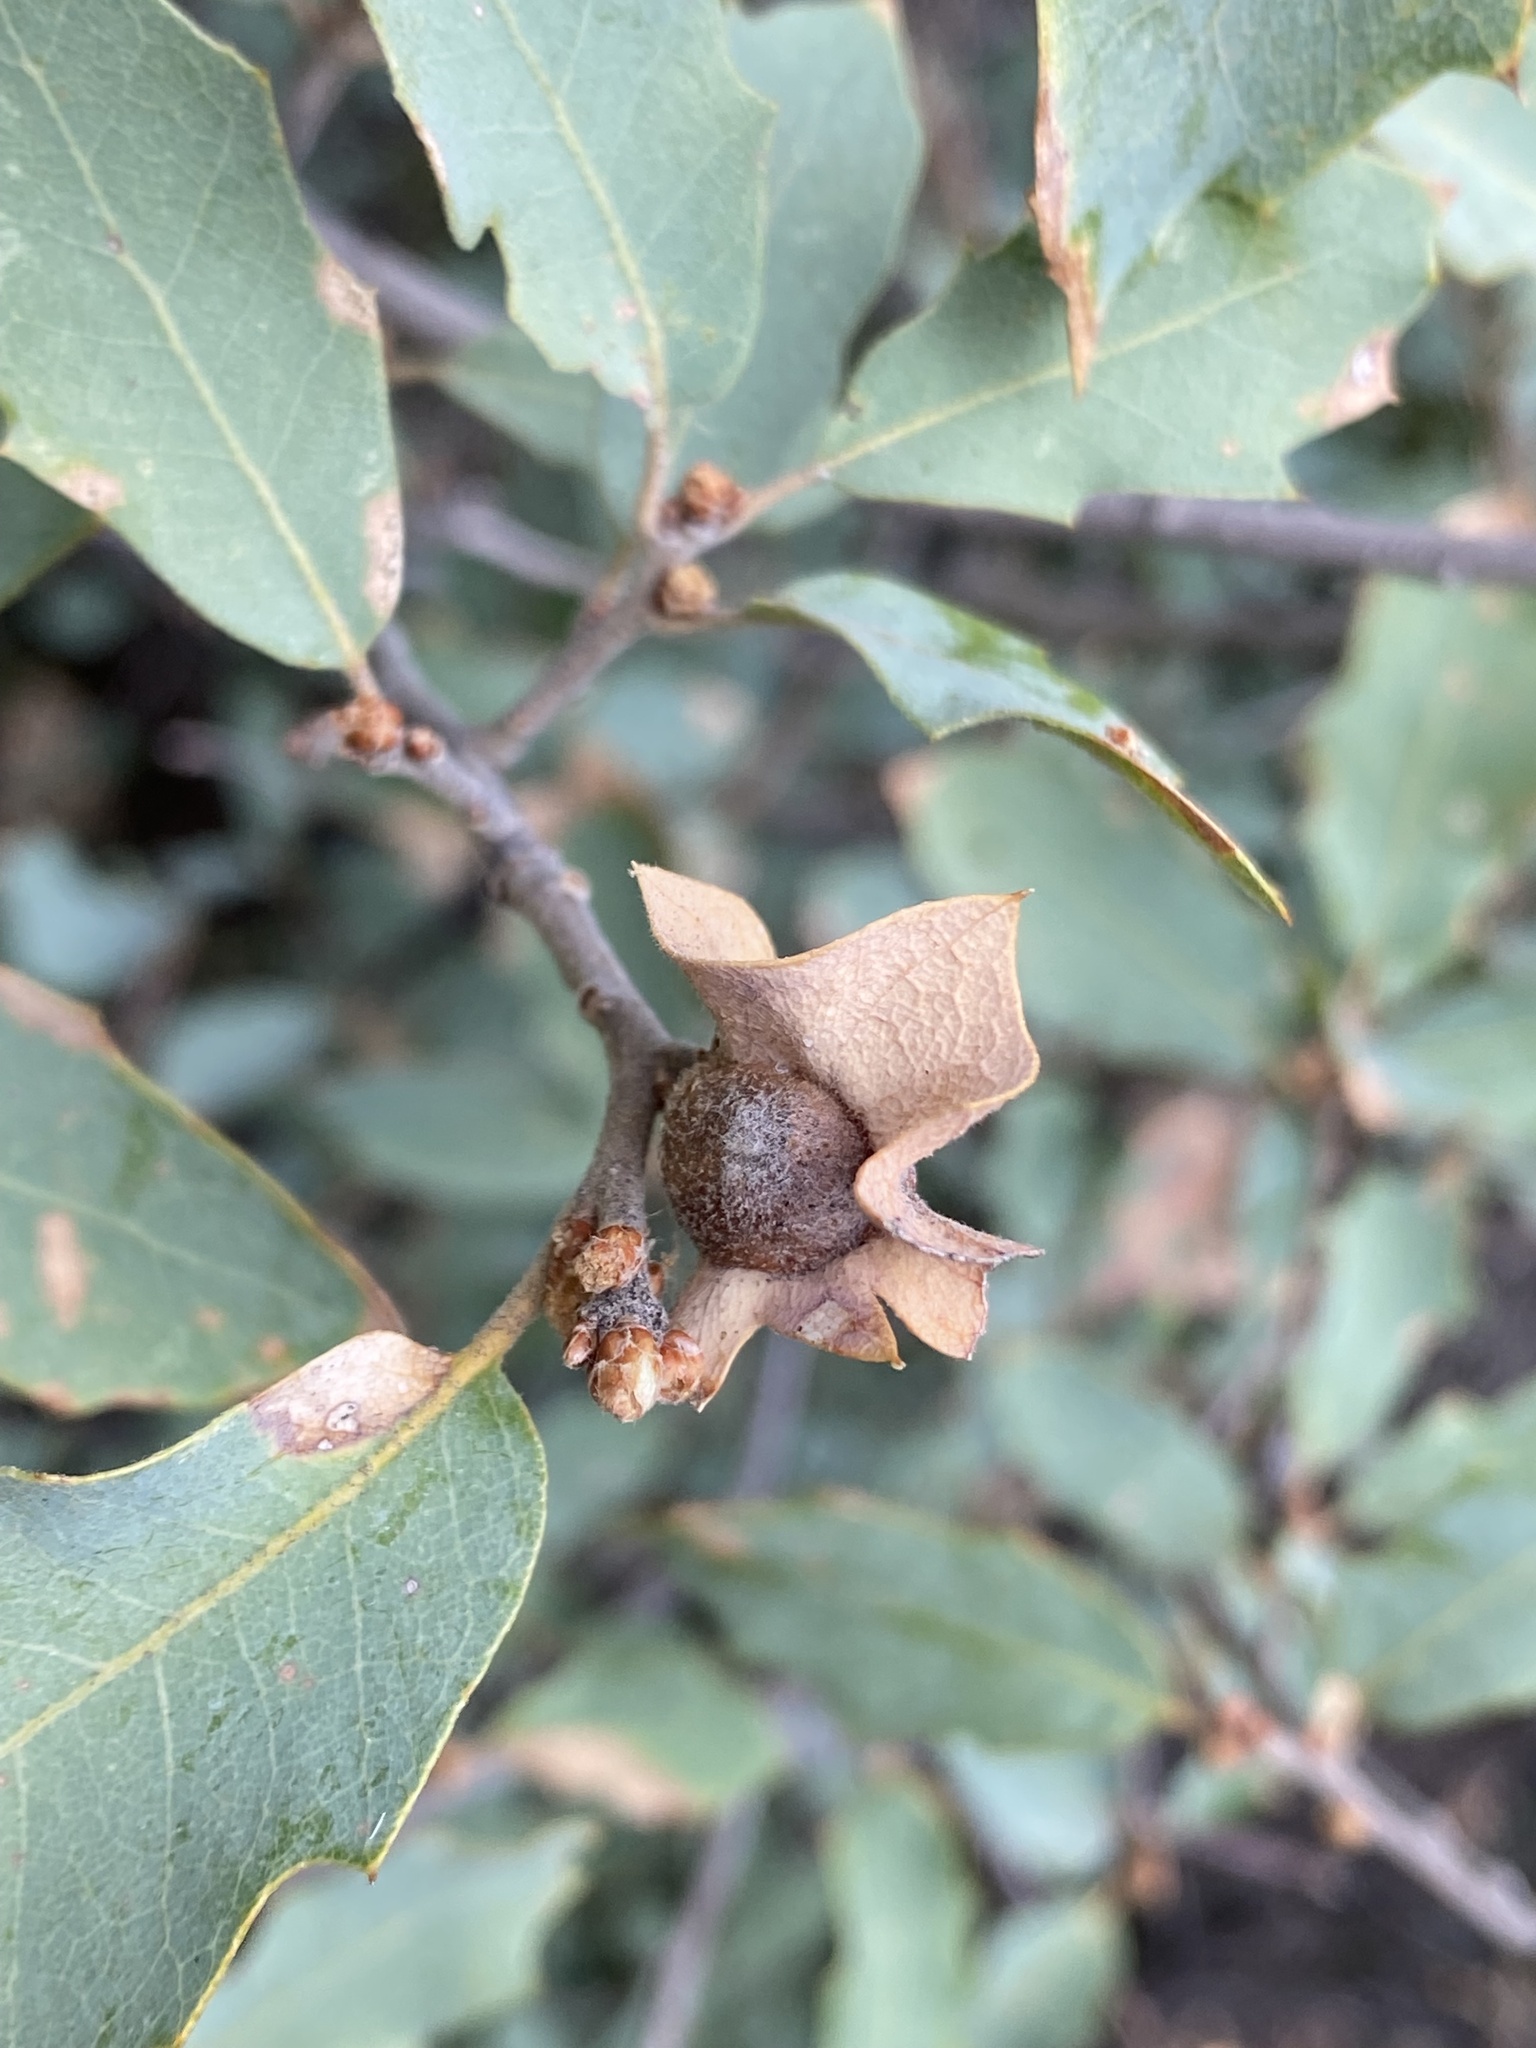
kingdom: Animalia
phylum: Arthropoda
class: Insecta
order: Hymenoptera
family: Cynipidae
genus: Andricus
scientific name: Andricus
